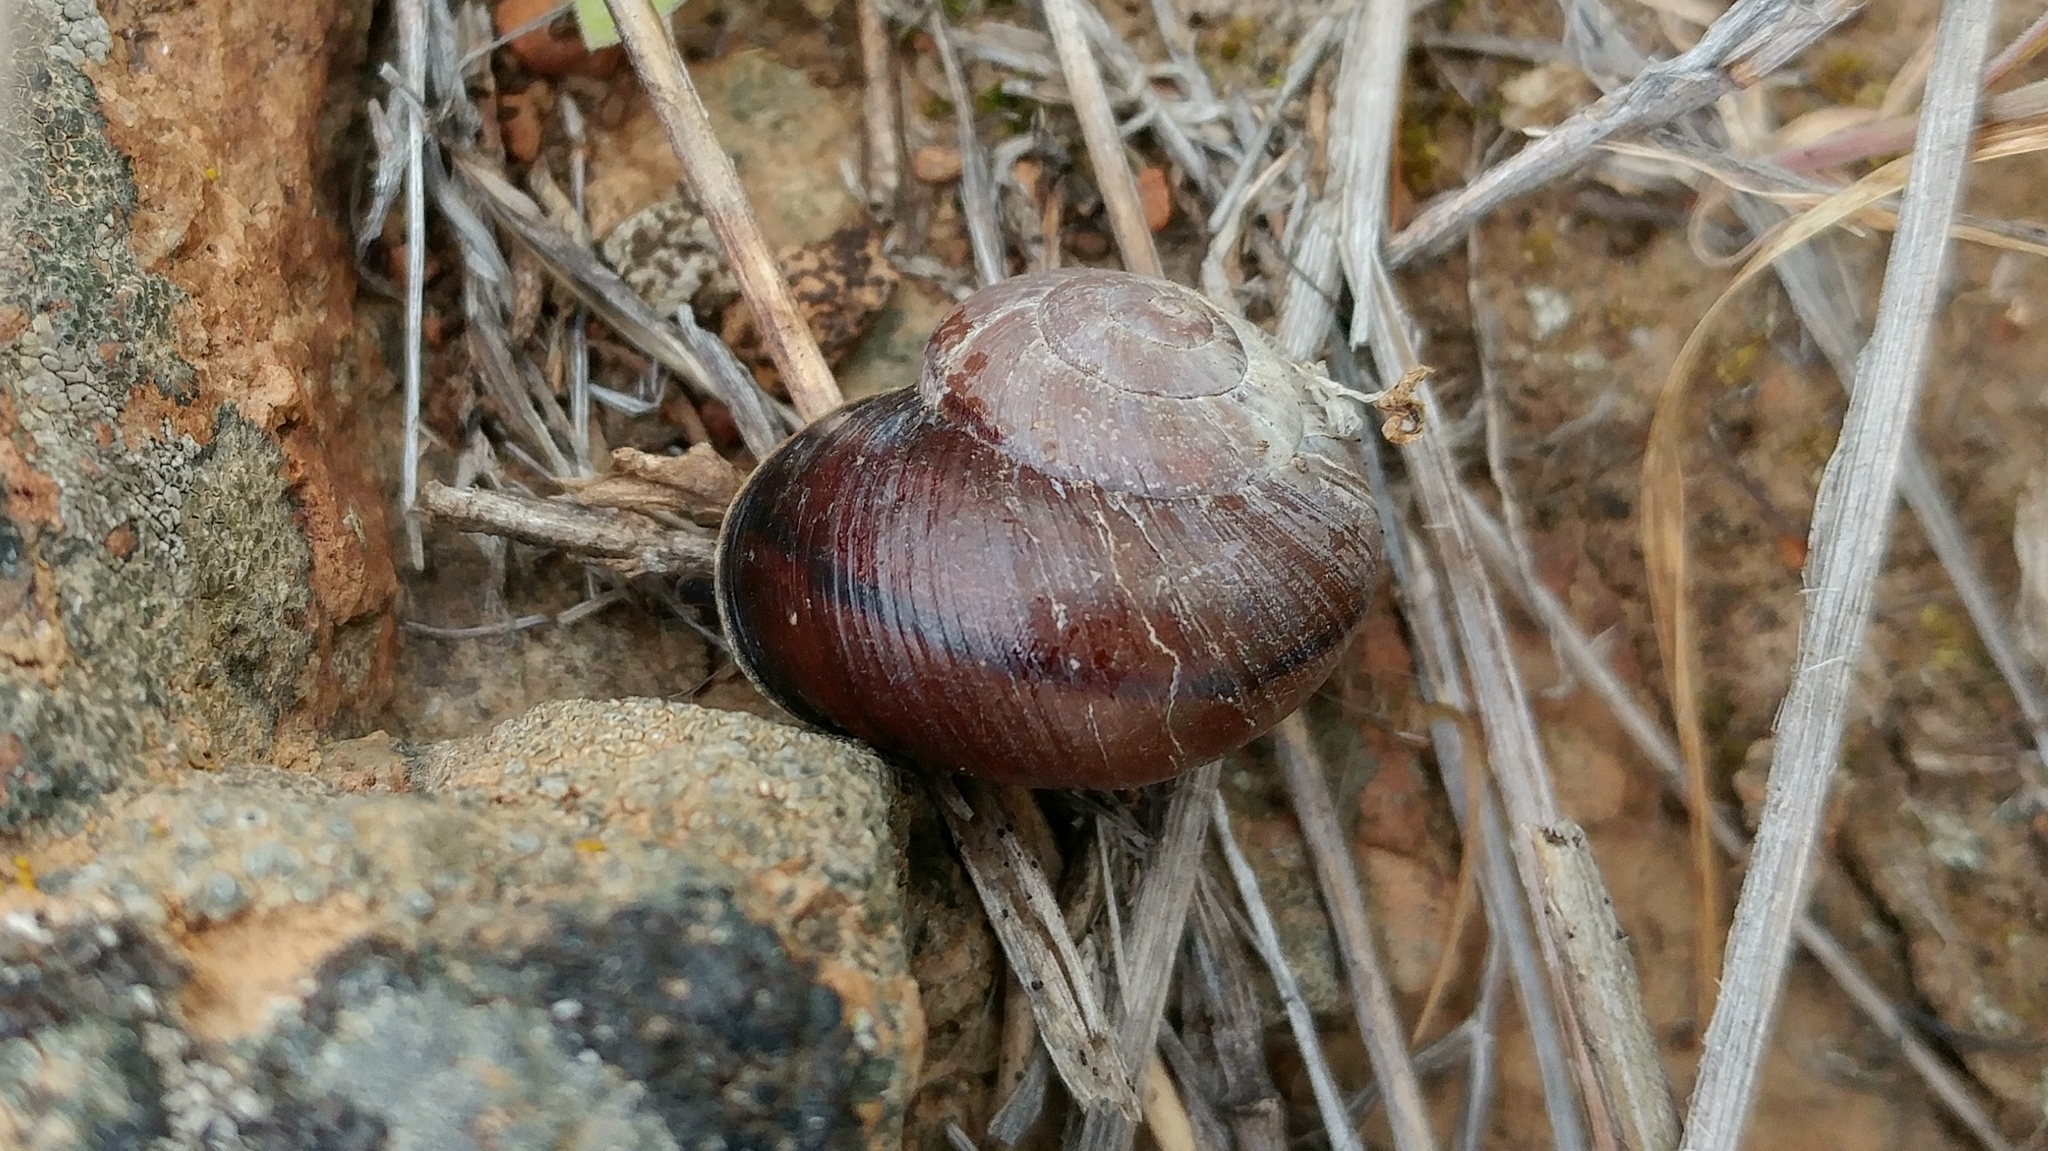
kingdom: Animalia
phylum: Mollusca
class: Gastropoda
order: Stylommatophora
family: Xanthonychidae
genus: Xerarionta
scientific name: Xerarionta redimita
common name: Wreathed cactus snail
